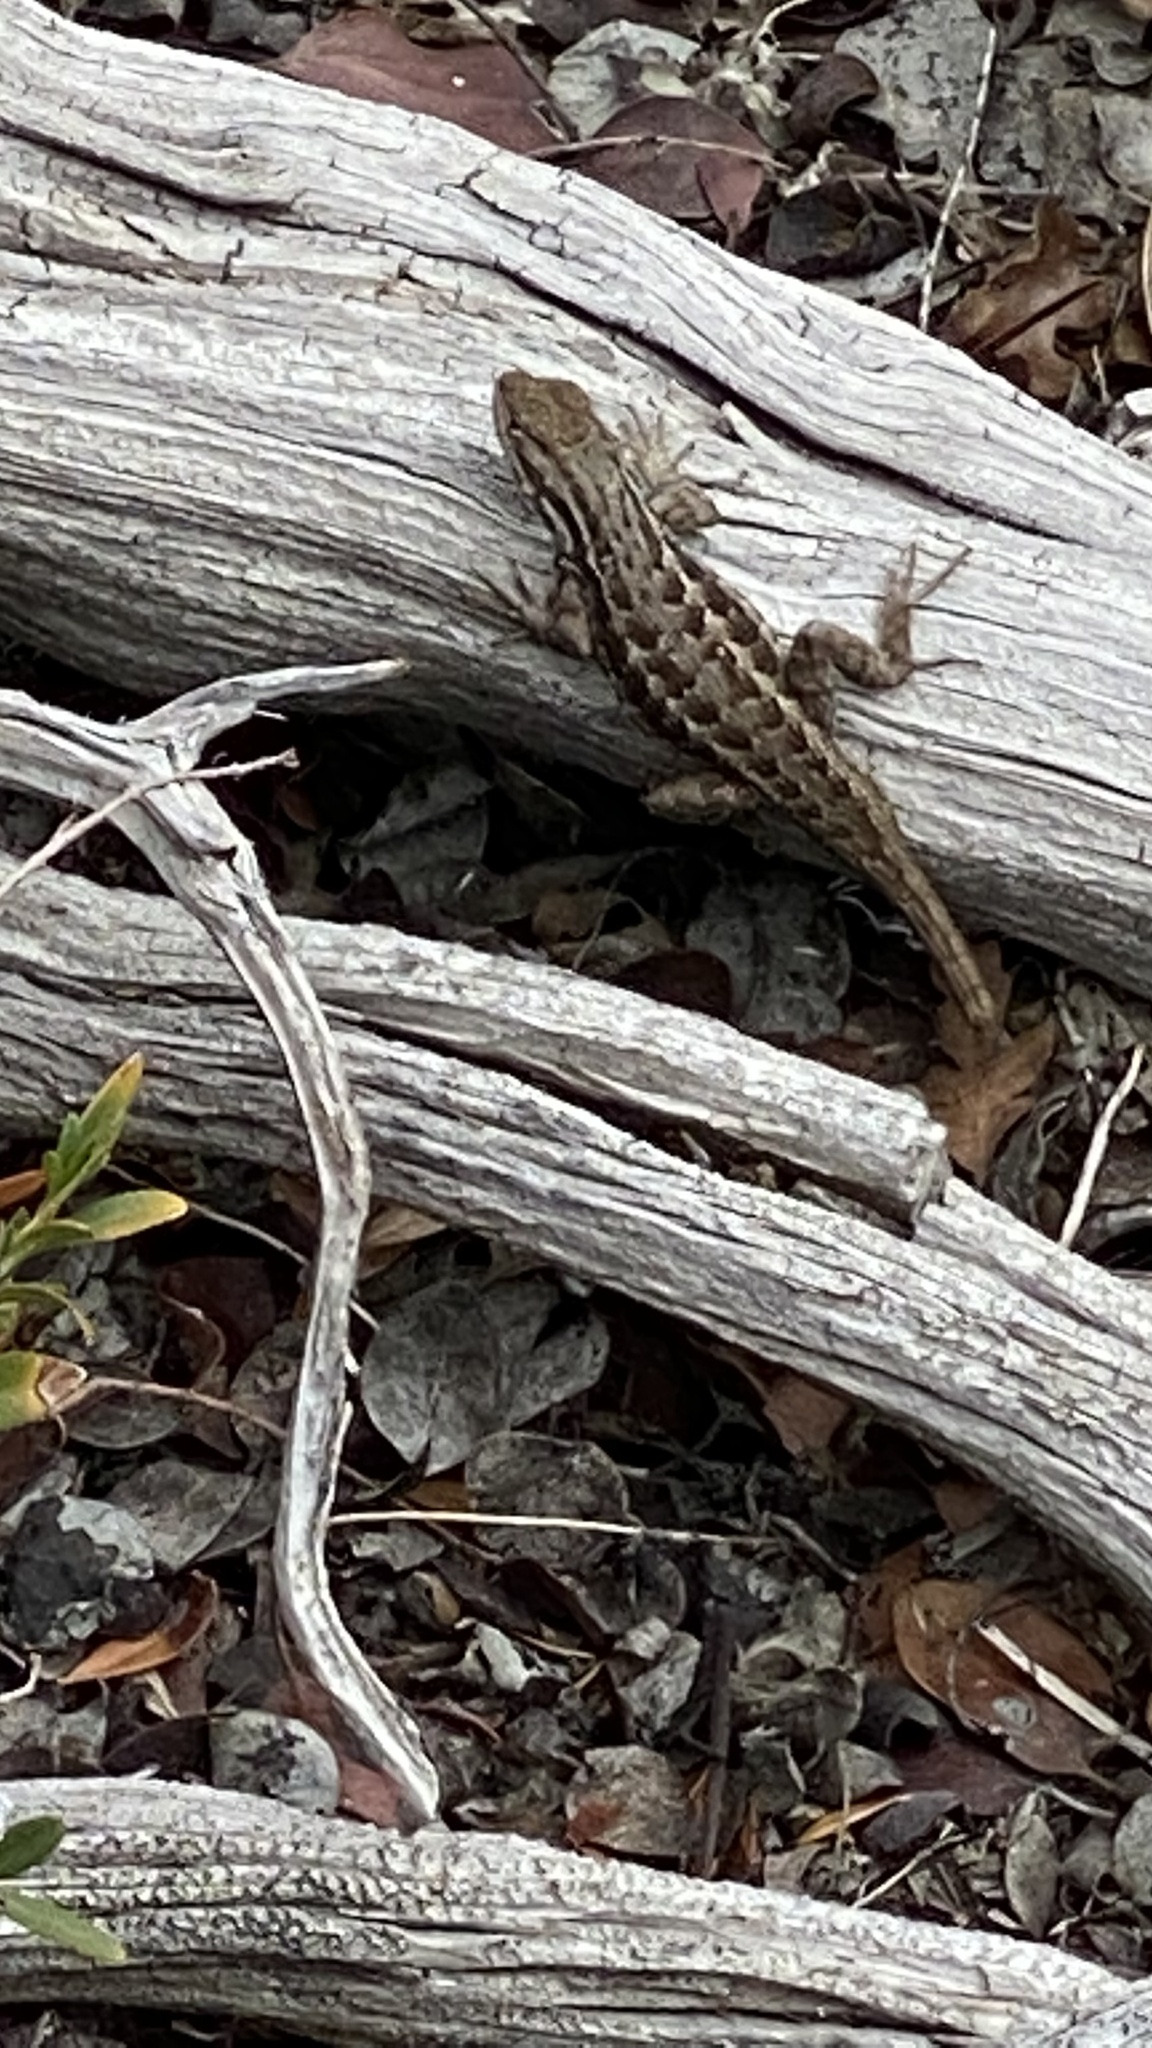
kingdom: Animalia
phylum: Chordata
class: Squamata
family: Phrynosomatidae
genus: Sceloporus
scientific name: Sceloporus graciosus
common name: Sagebrush lizard
